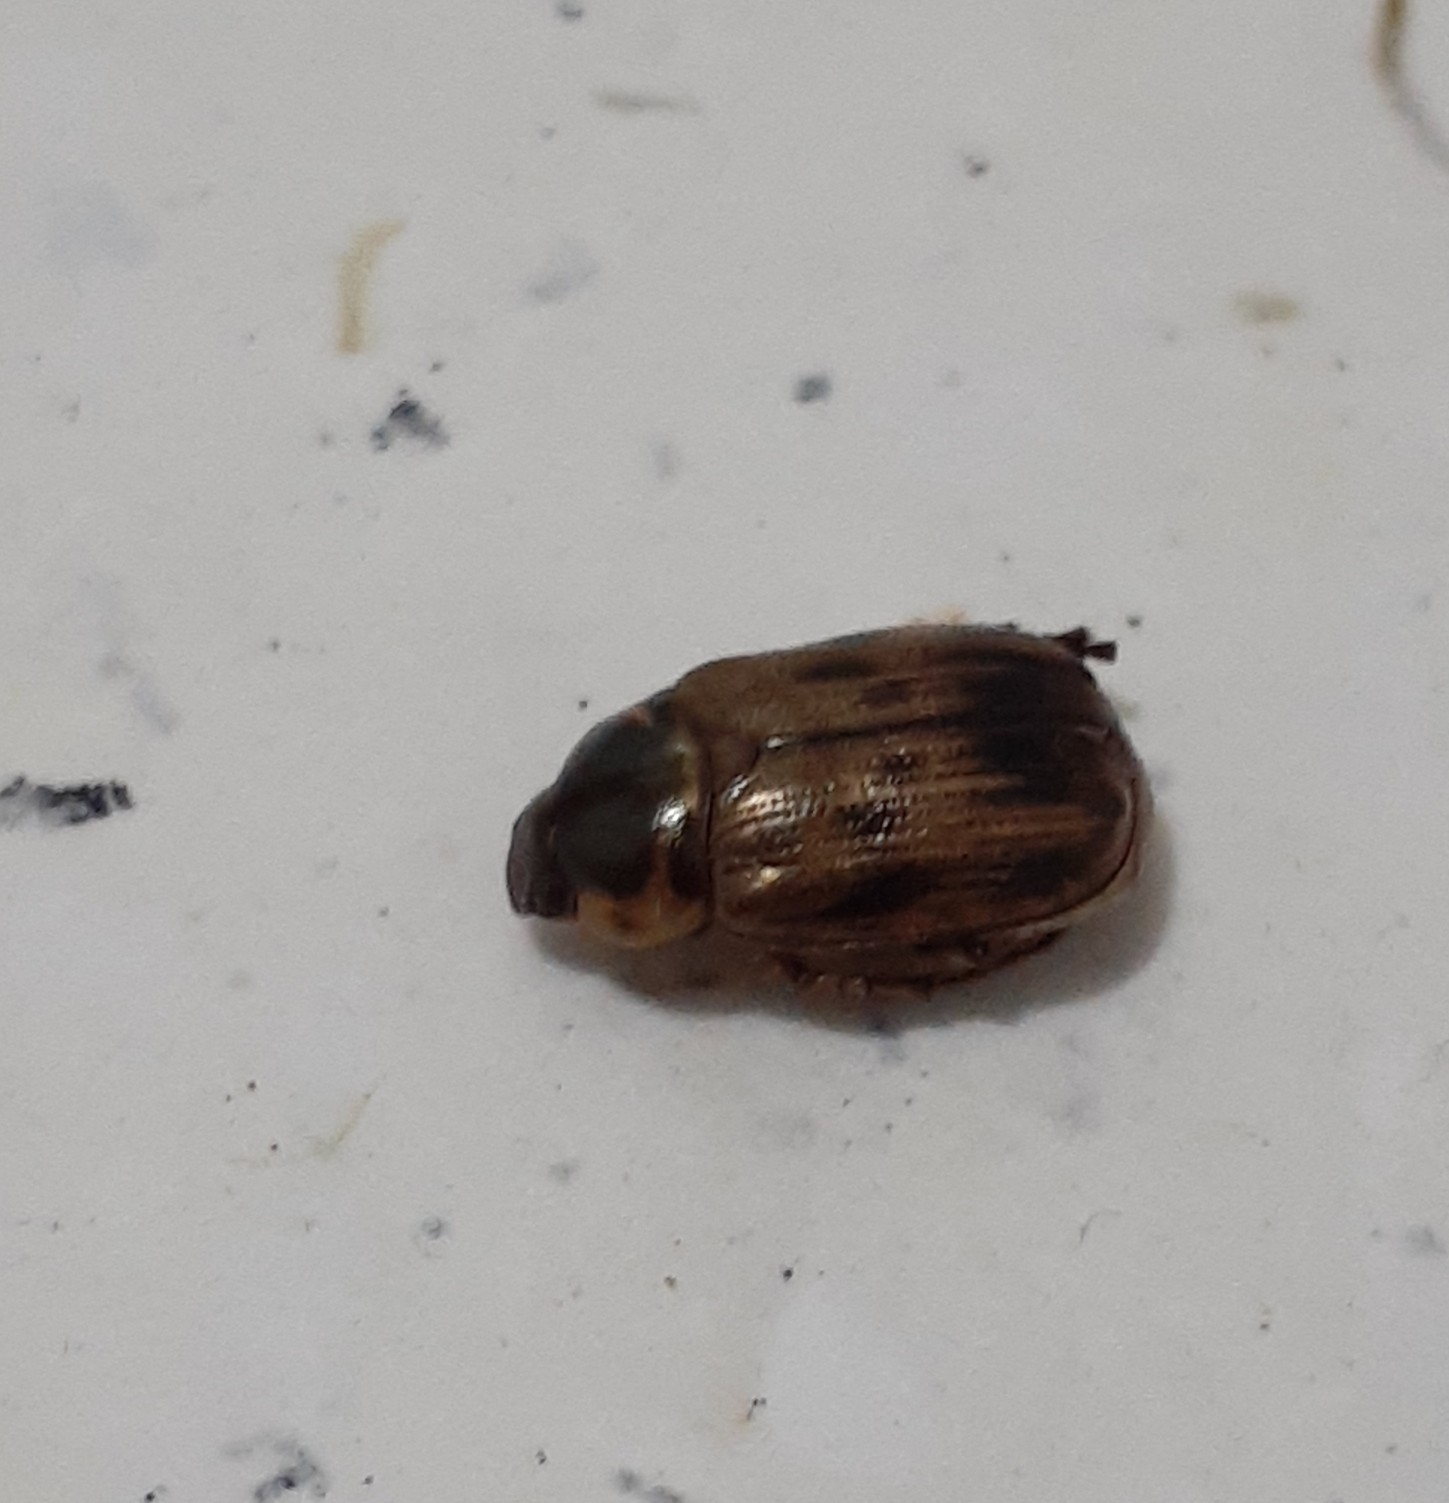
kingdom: Animalia
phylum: Arthropoda
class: Insecta
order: Coleoptera
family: Scarabaeidae
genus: Paranomala
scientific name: Paranomala undulata
